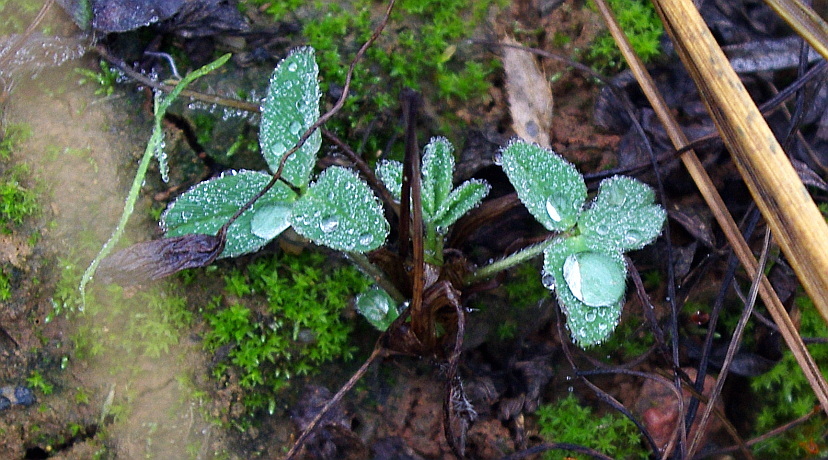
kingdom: Plantae
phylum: Tracheophyta
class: Magnoliopsida
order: Fabales
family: Fabaceae
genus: Trifolium
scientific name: Trifolium pratense
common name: Red clover
